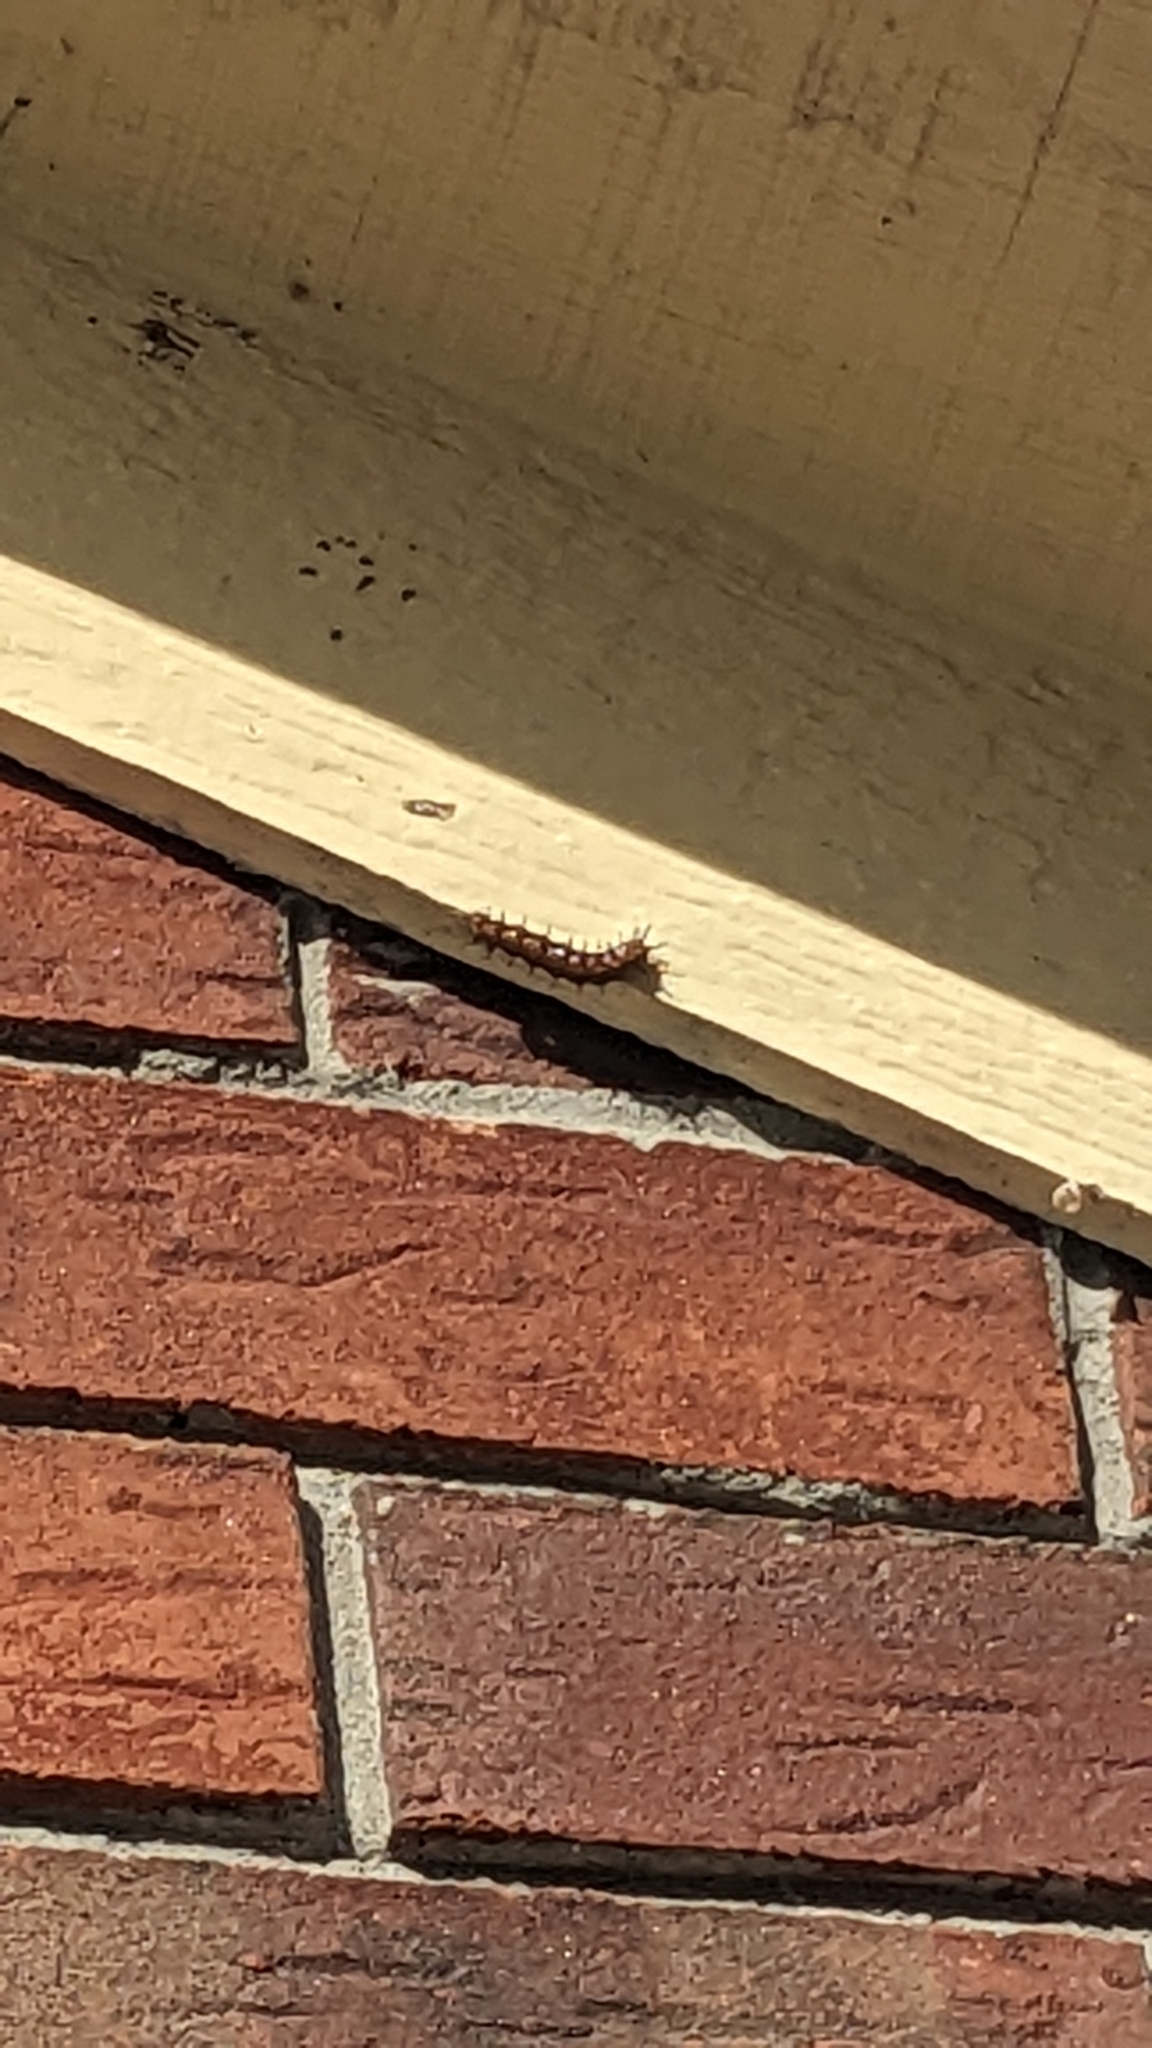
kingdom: Animalia
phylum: Arthropoda
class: Insecta
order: Lepidoptera
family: Nymphalidae
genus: Dione
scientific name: Dione vanillae
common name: Gulf fritillary
